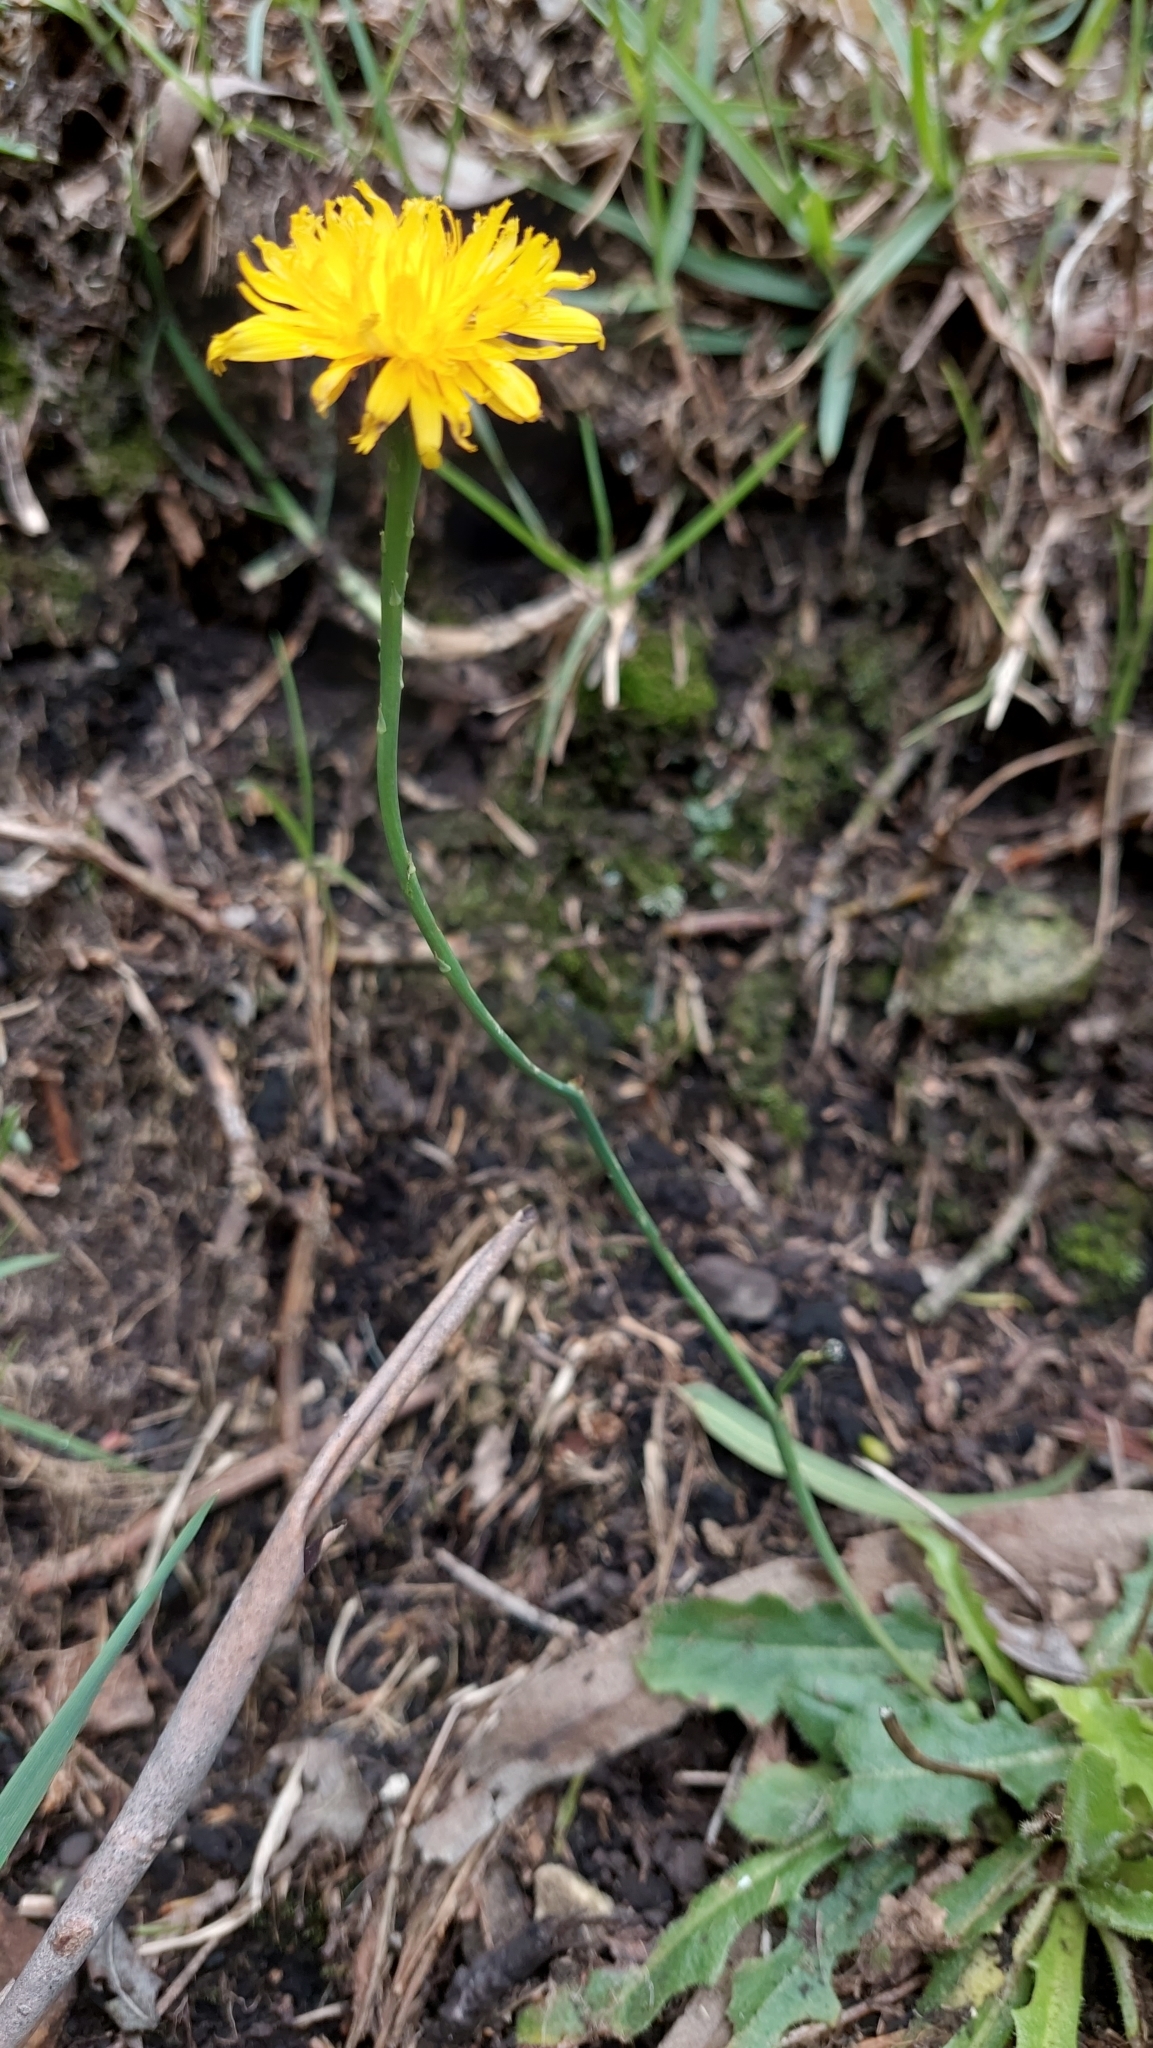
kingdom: Plantae
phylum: Tracheophyta
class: Magnoliopsida
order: Asterales
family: Asteraceae
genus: Hypochaeris
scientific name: Hypochaeris radicata
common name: Flatweed
